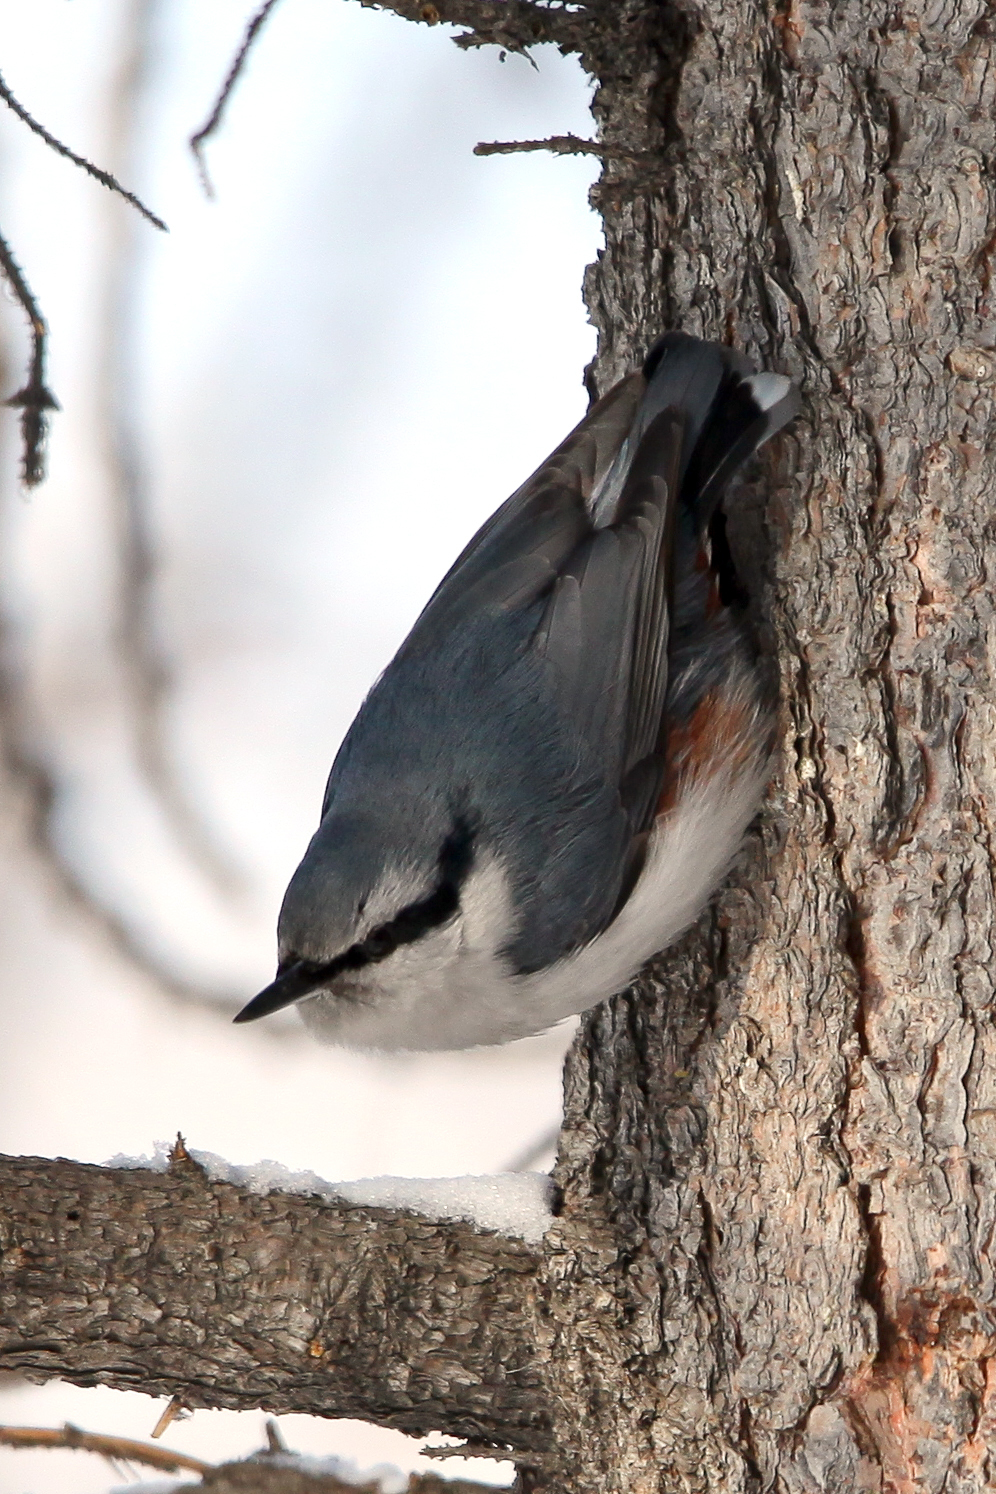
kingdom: Animalia
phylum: Chordata
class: Aves
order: Passeriformes
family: Sittidae
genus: Sitta
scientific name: Sitta europaea
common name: Eurasian nuthatch
